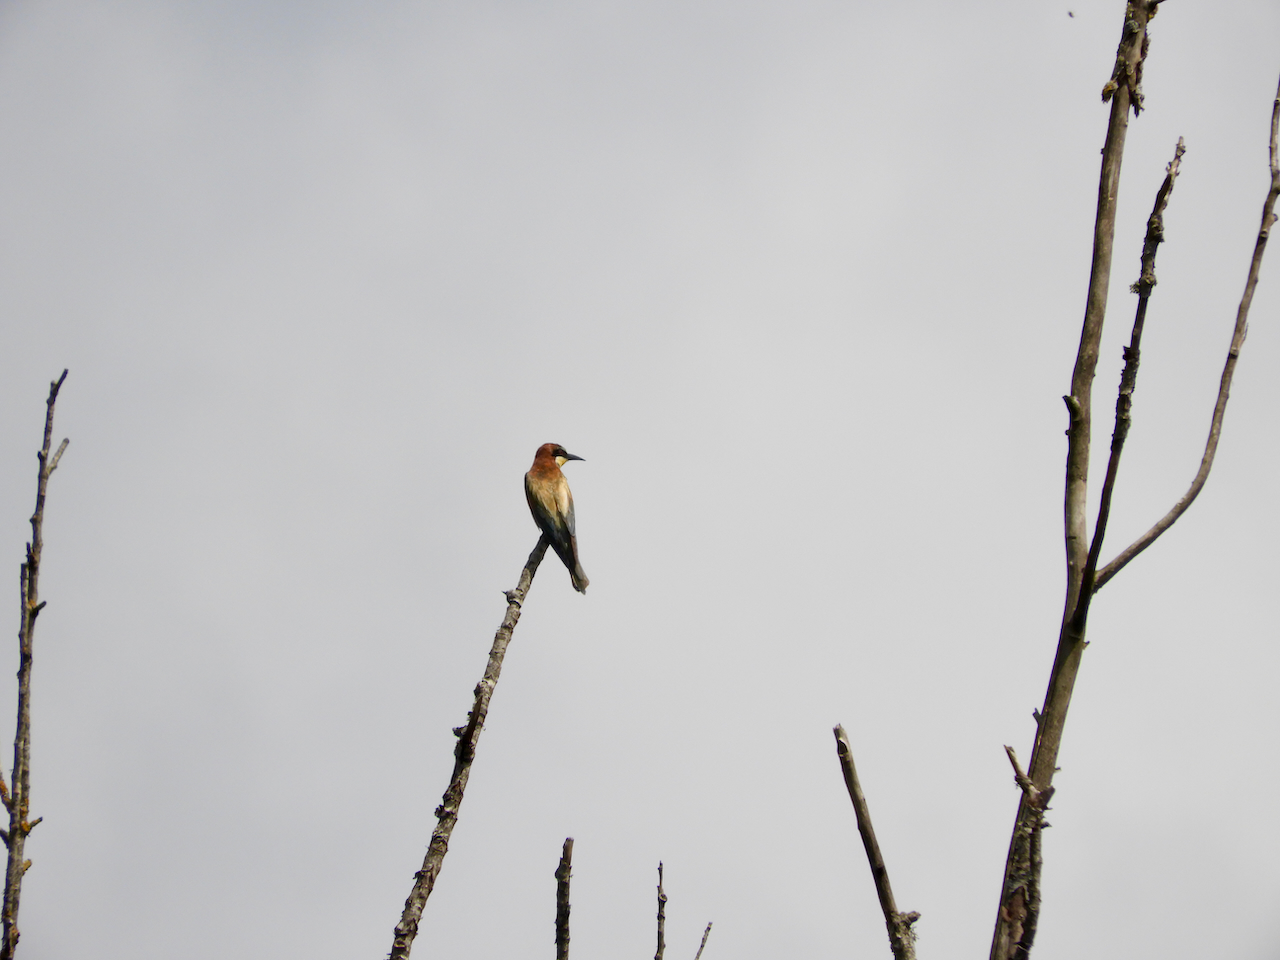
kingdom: Animalia
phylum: Chordata
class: Aves
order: Coraciiformes
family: Meropidae
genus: Merops
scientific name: Merops apiaster
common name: European bee-eater
